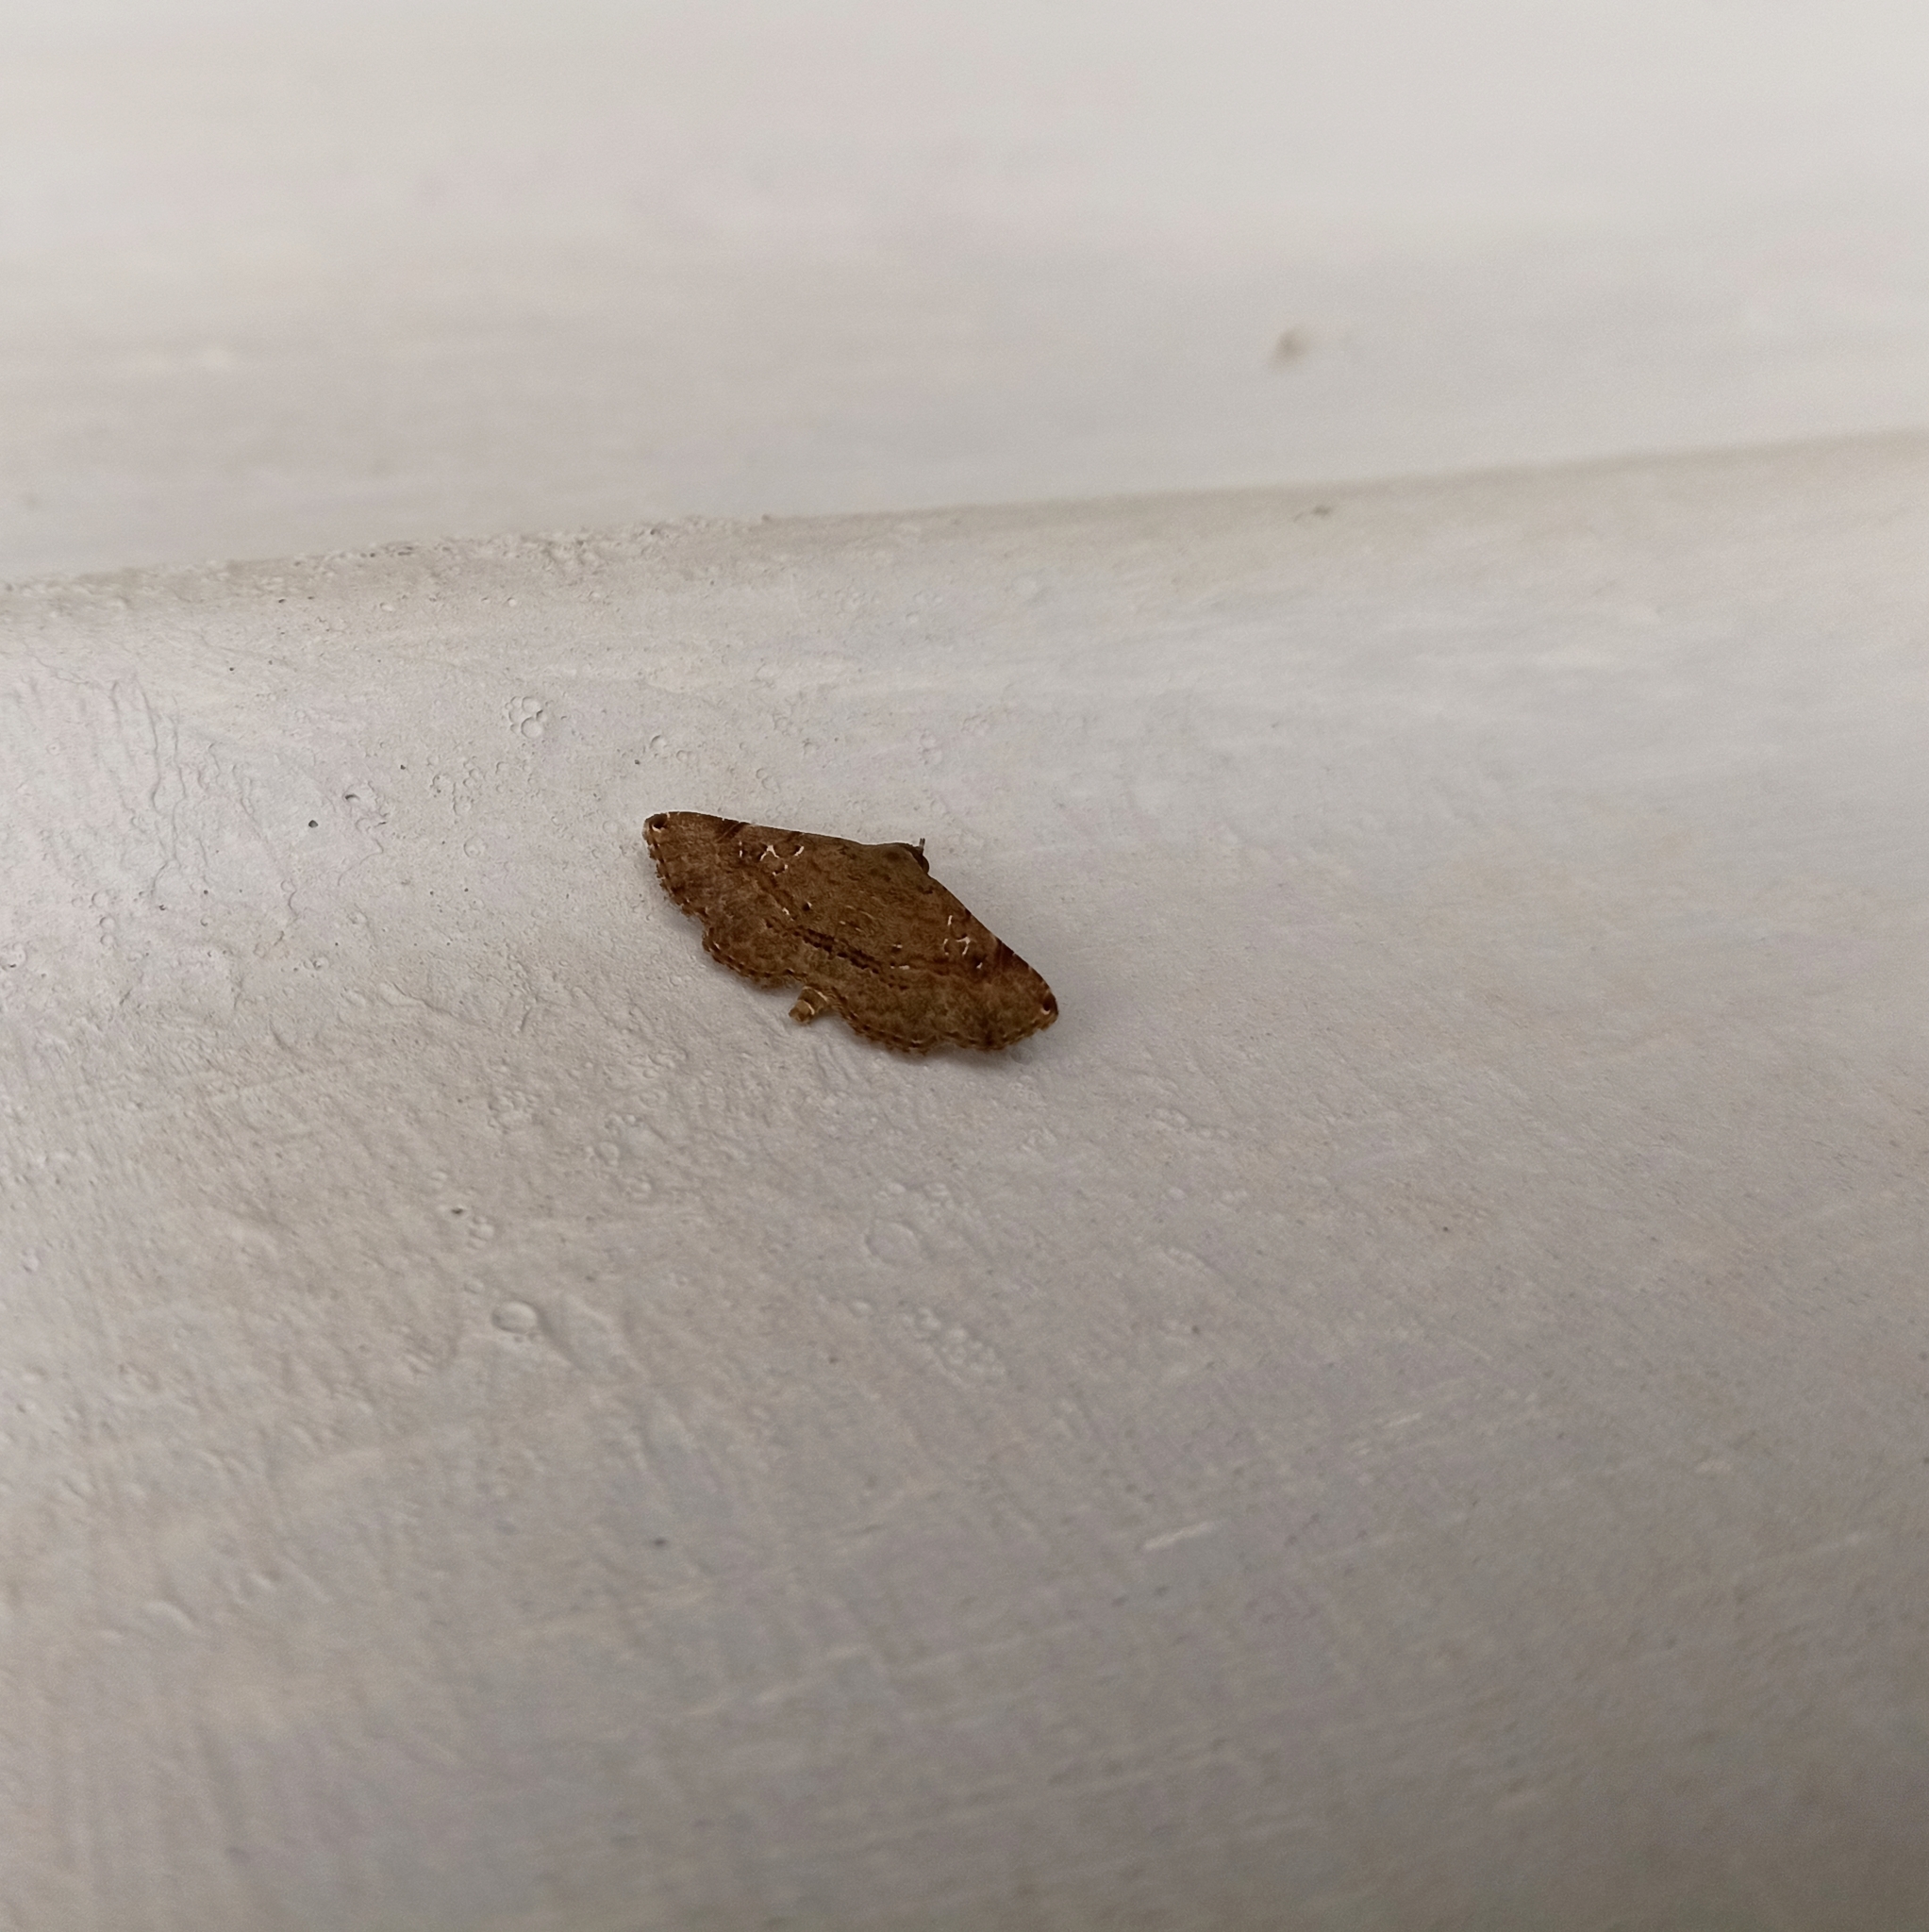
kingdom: Animalia
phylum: Arthropoda
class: Insecta
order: Lepidoptera
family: Erebidae
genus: Rhesala
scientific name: Rhesala imparata
